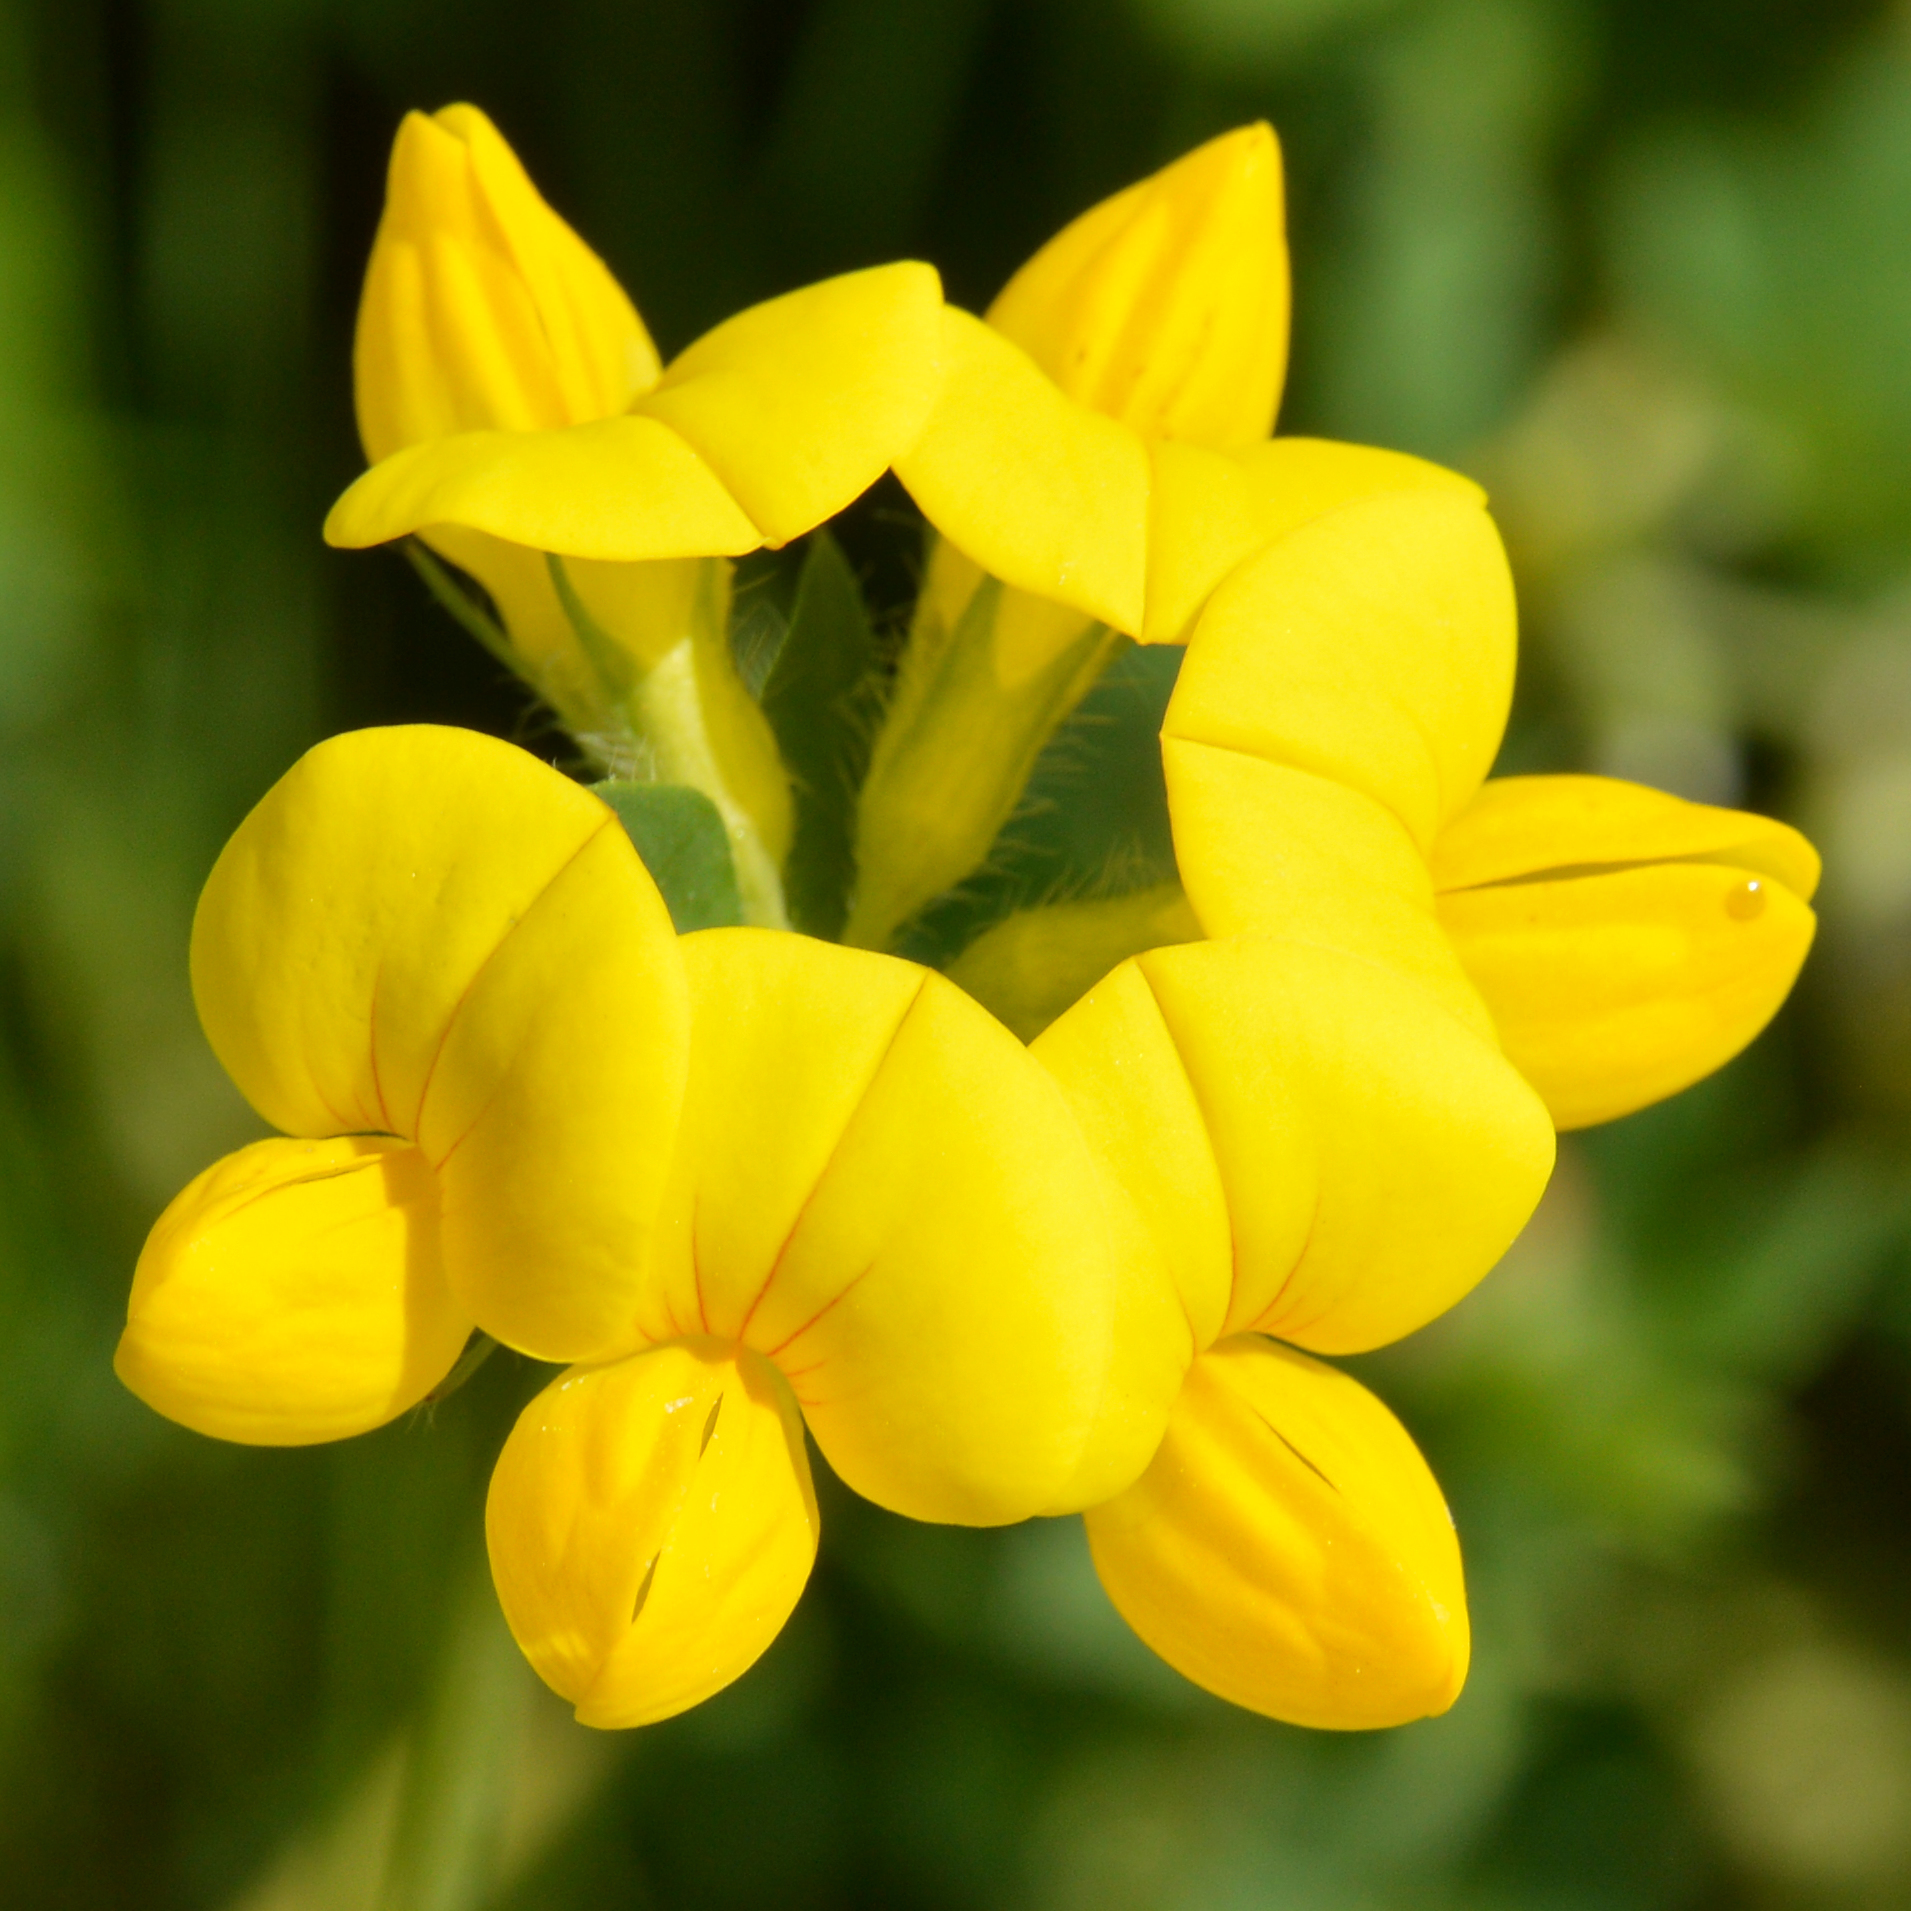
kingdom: Plantae
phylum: Tracheophyta
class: Magnoliopsida
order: Fabales
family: Fabaceae
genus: Lotus
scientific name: Lotus corniculatus
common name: Common bird's-foot-trefoil
